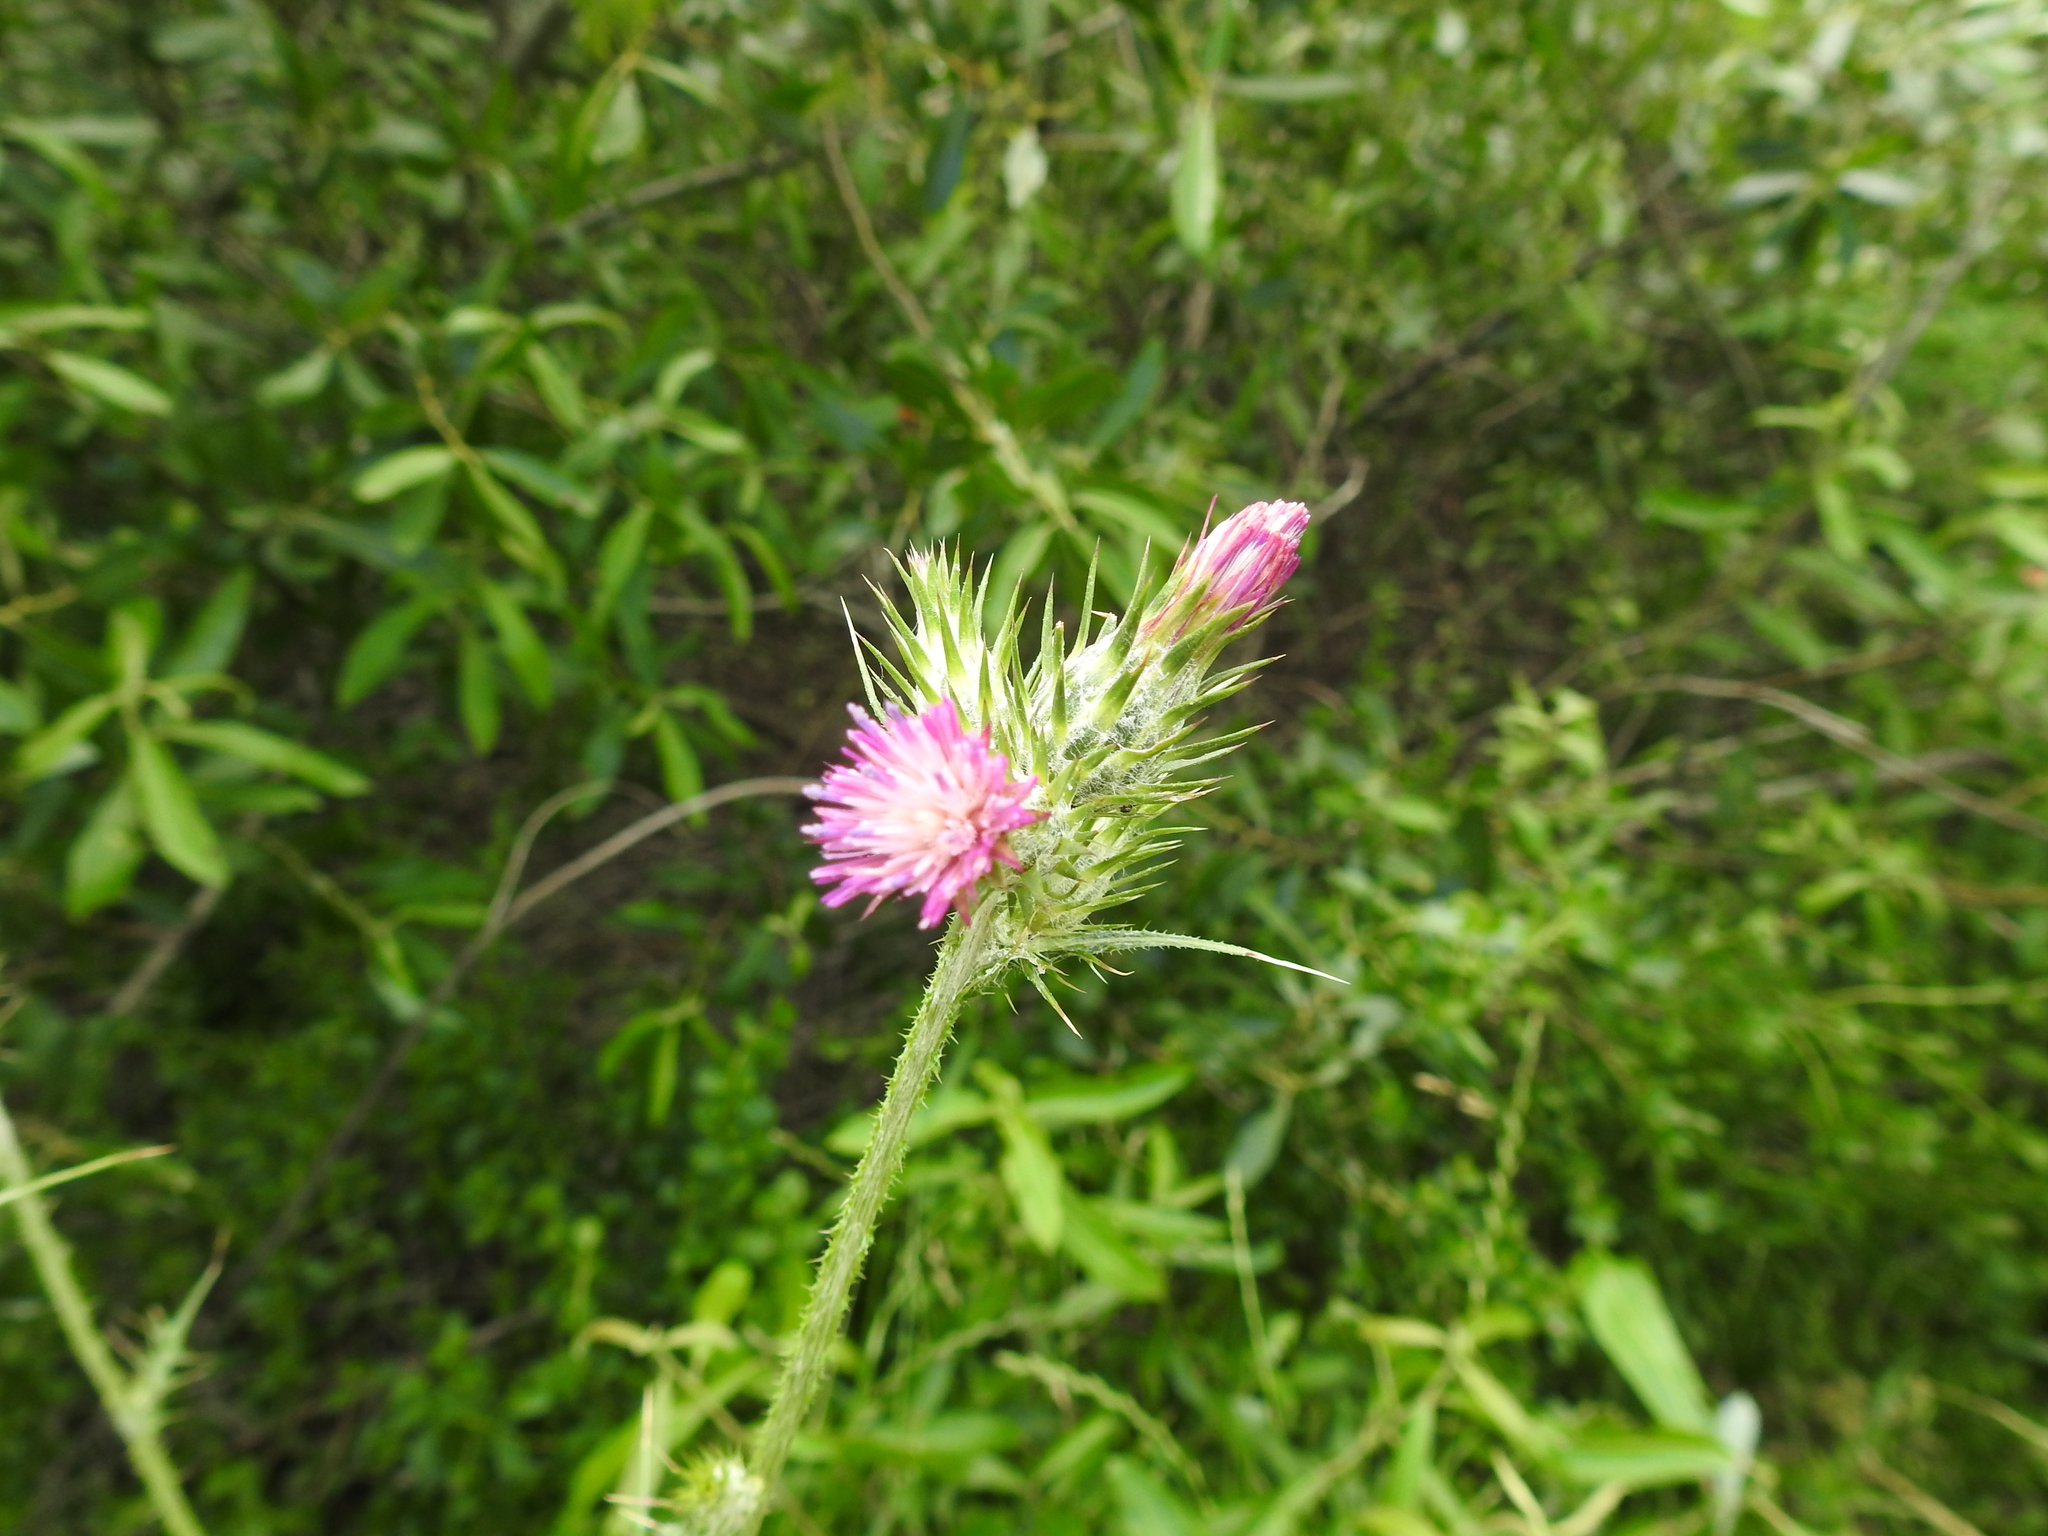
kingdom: Plantae
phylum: Tracheophyta
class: Magnoliopsida
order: Asterales
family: Asteraceae
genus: Carduus
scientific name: Carduus pycnocephalus
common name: Plymouth thistle
